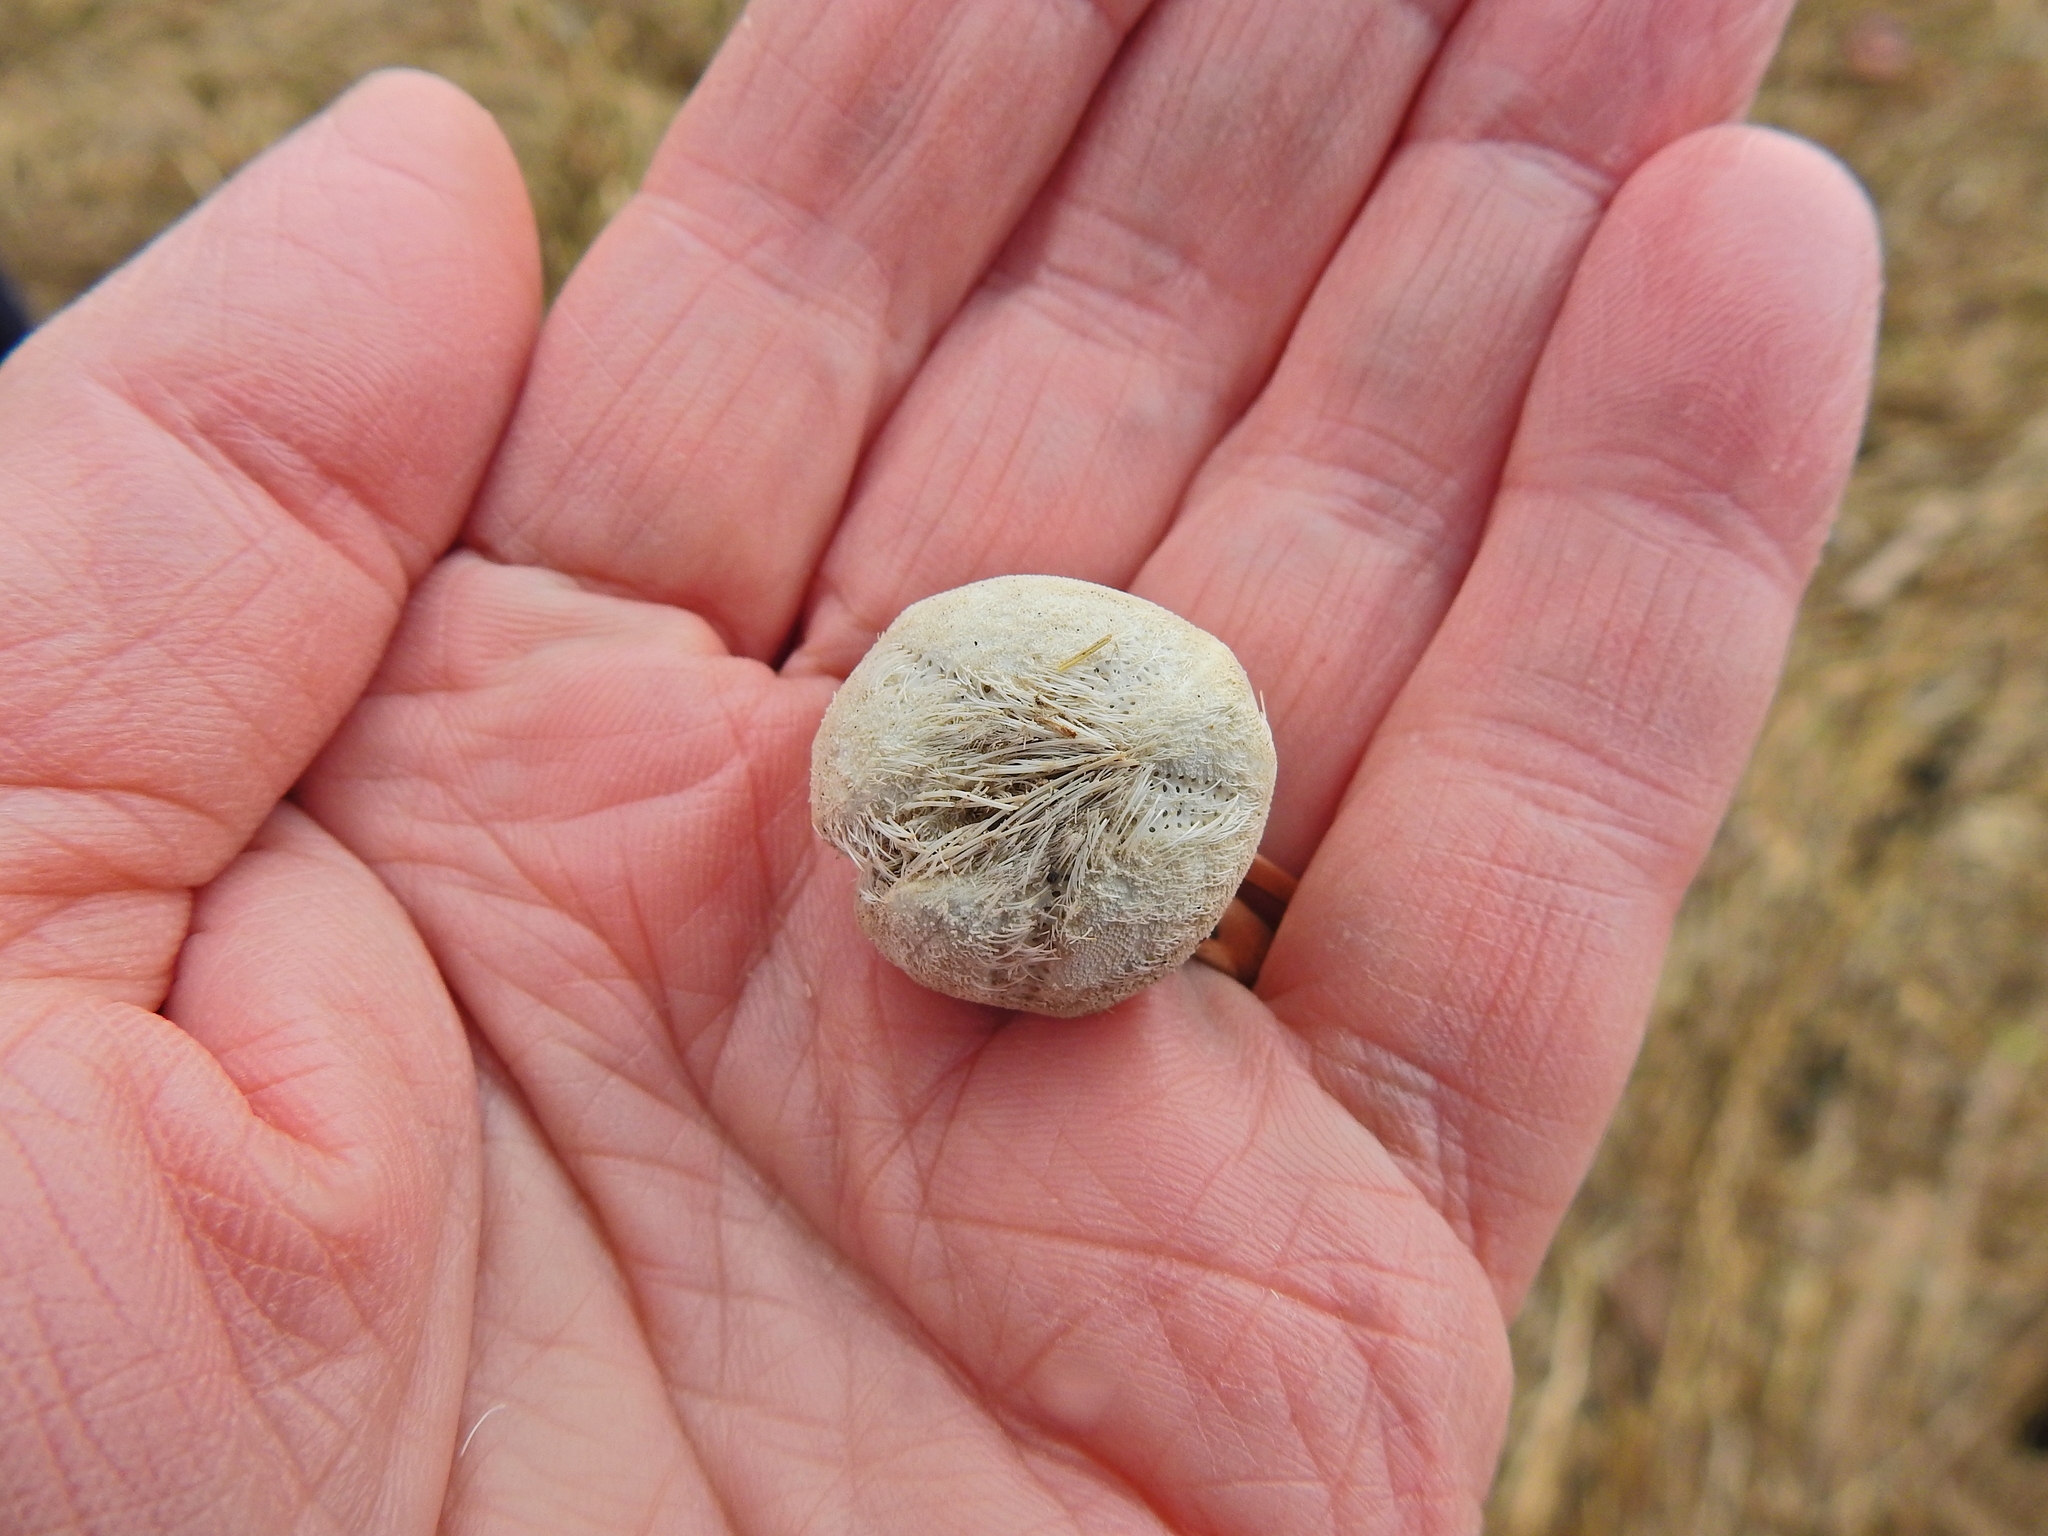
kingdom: Animalia
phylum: Echinodermata
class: Echinoidea
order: Spatangoida
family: Loveniidae
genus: Echinocardium
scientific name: Echinocardium cordatum
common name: Heart-urchin
